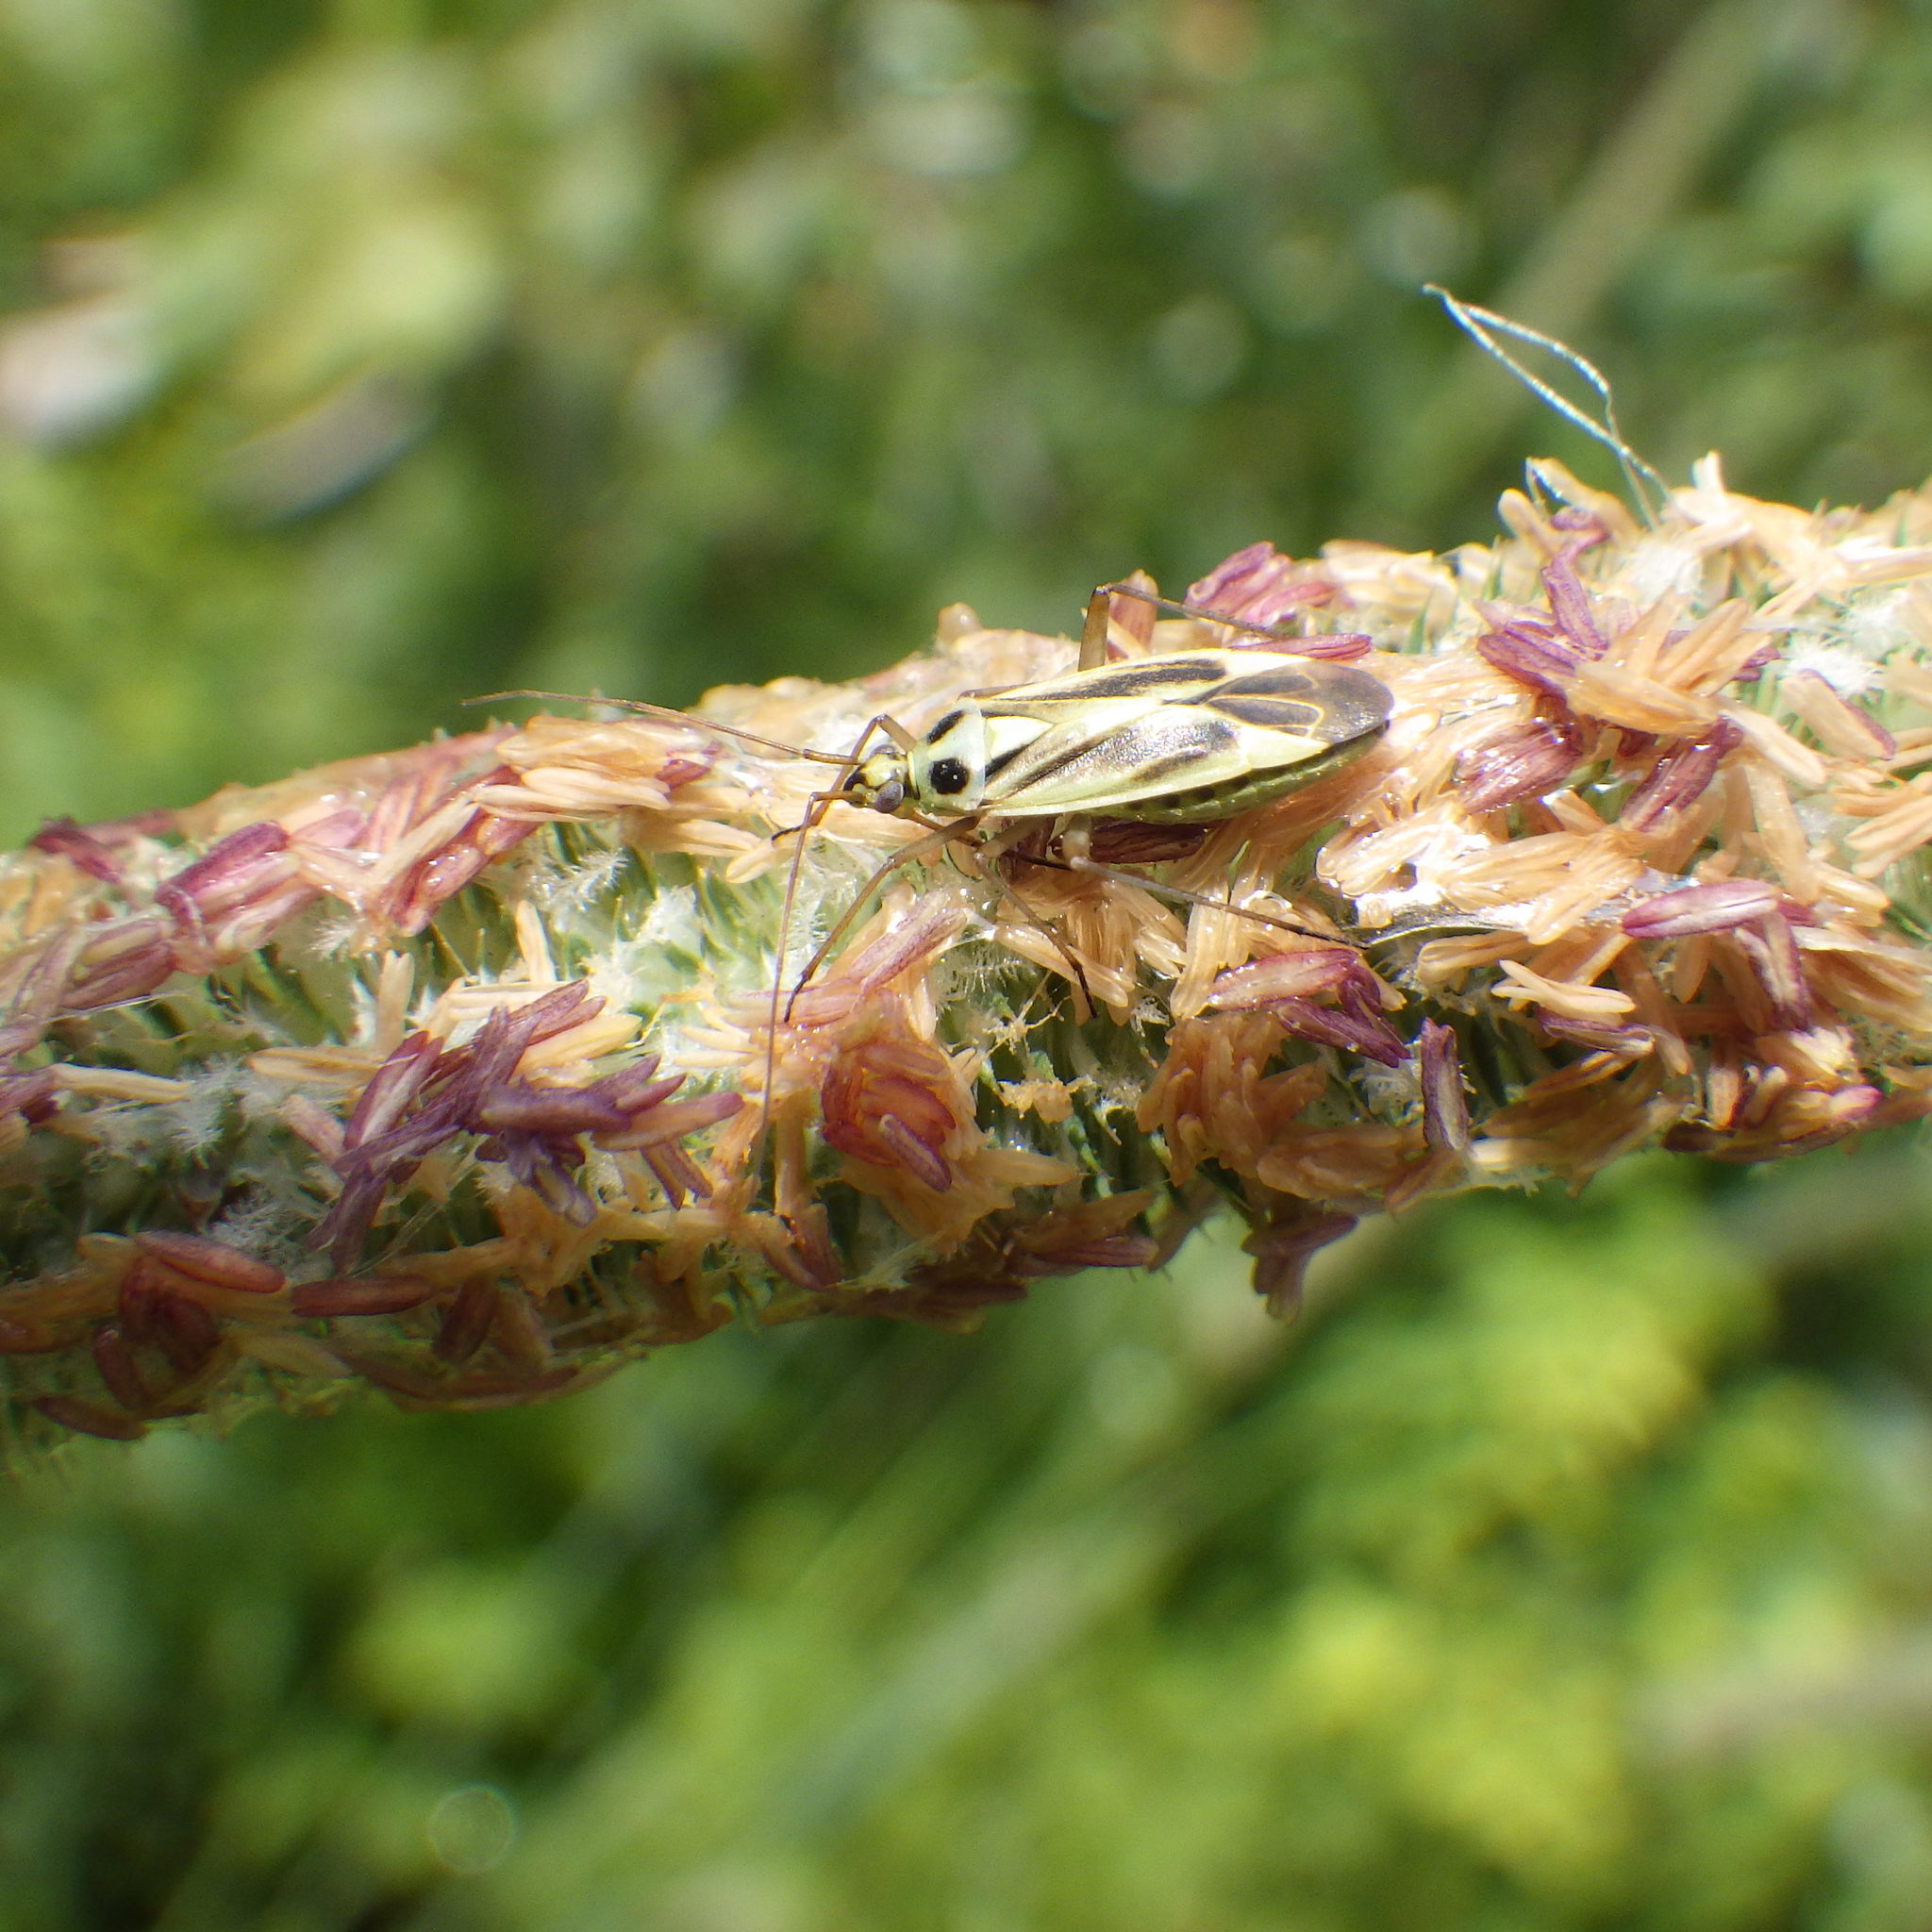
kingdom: Animalia
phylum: Arthropoda
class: Insecta
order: Hemiptera
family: Miridae
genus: Stenotus
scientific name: Stenotus binotatus
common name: Plant bug
